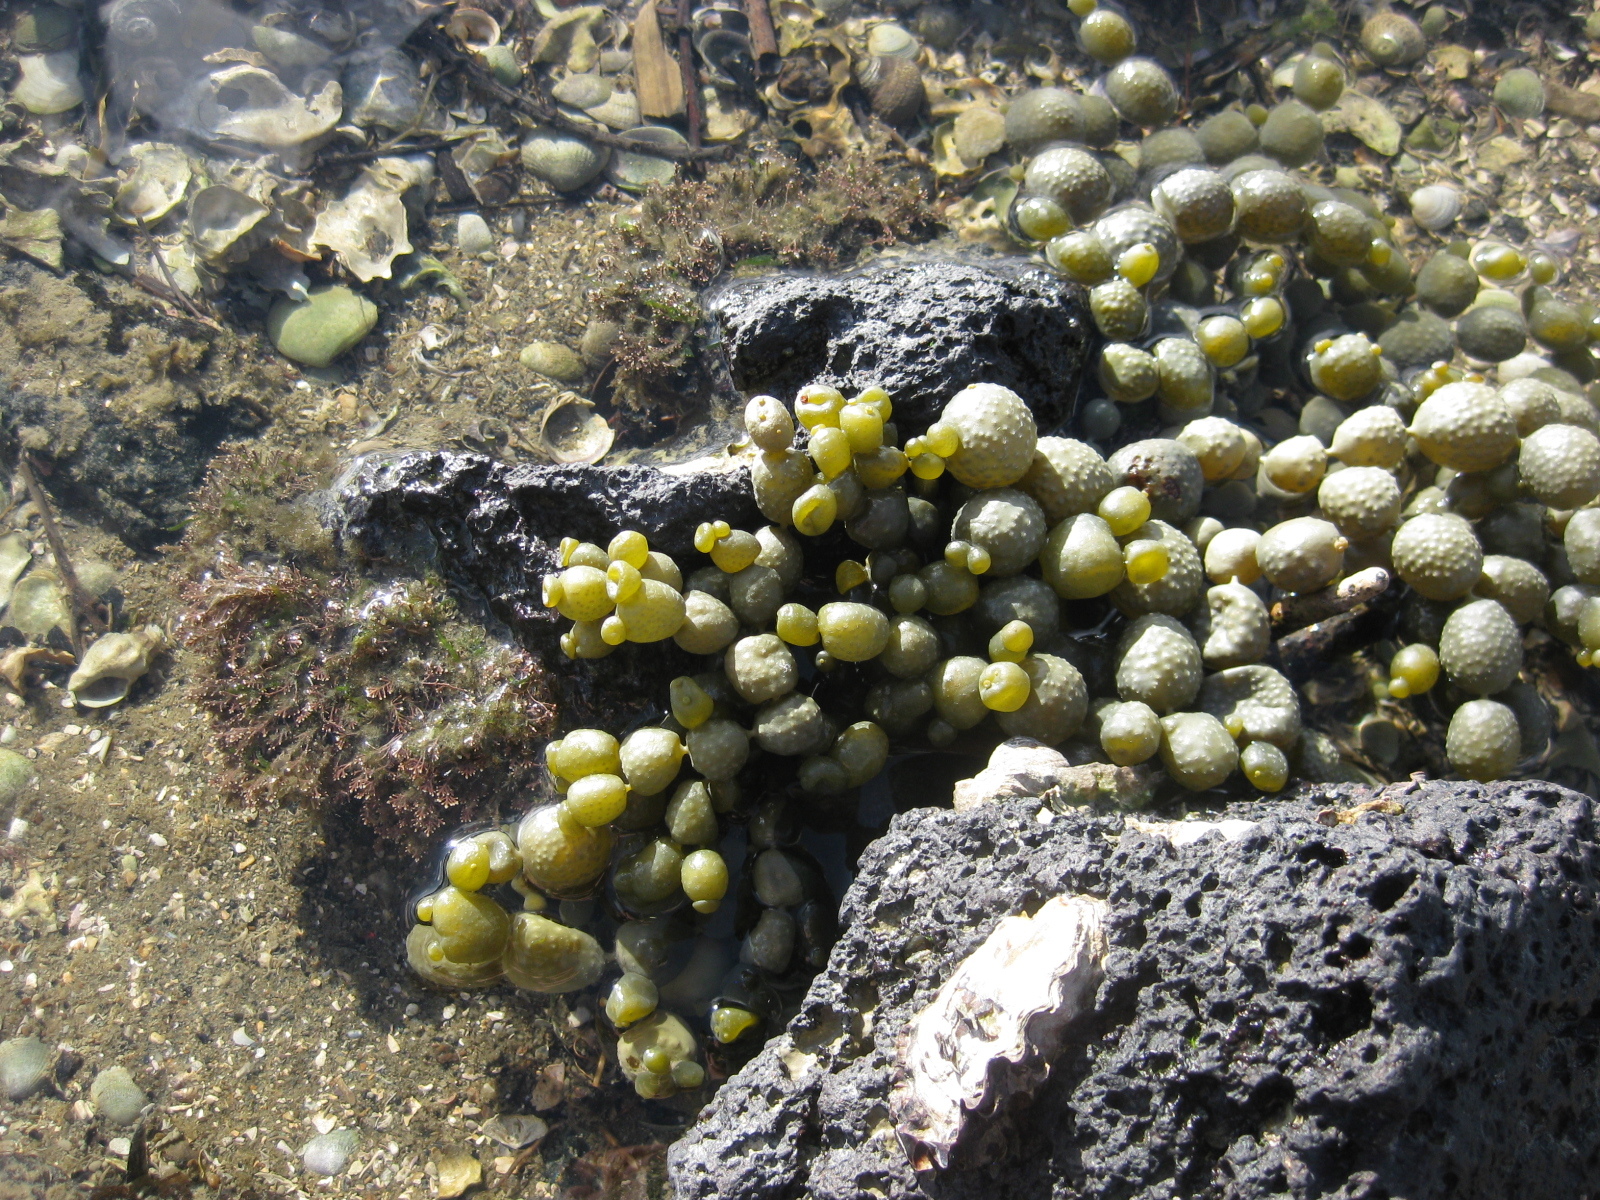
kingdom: Chromista
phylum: Ochrophyta
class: Phaeophyceae
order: Fucales
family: Hormosiraceae
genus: Hormosira
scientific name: Hormosira banksii
